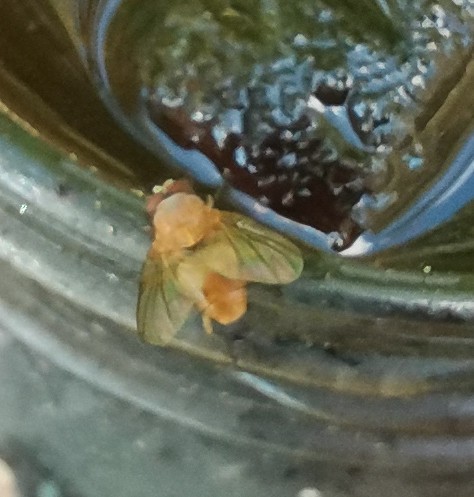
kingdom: Animalia
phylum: Arthropoda
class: Insecta
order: Diptera
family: Muscidae
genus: Phaonia
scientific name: Phaonia pallida
